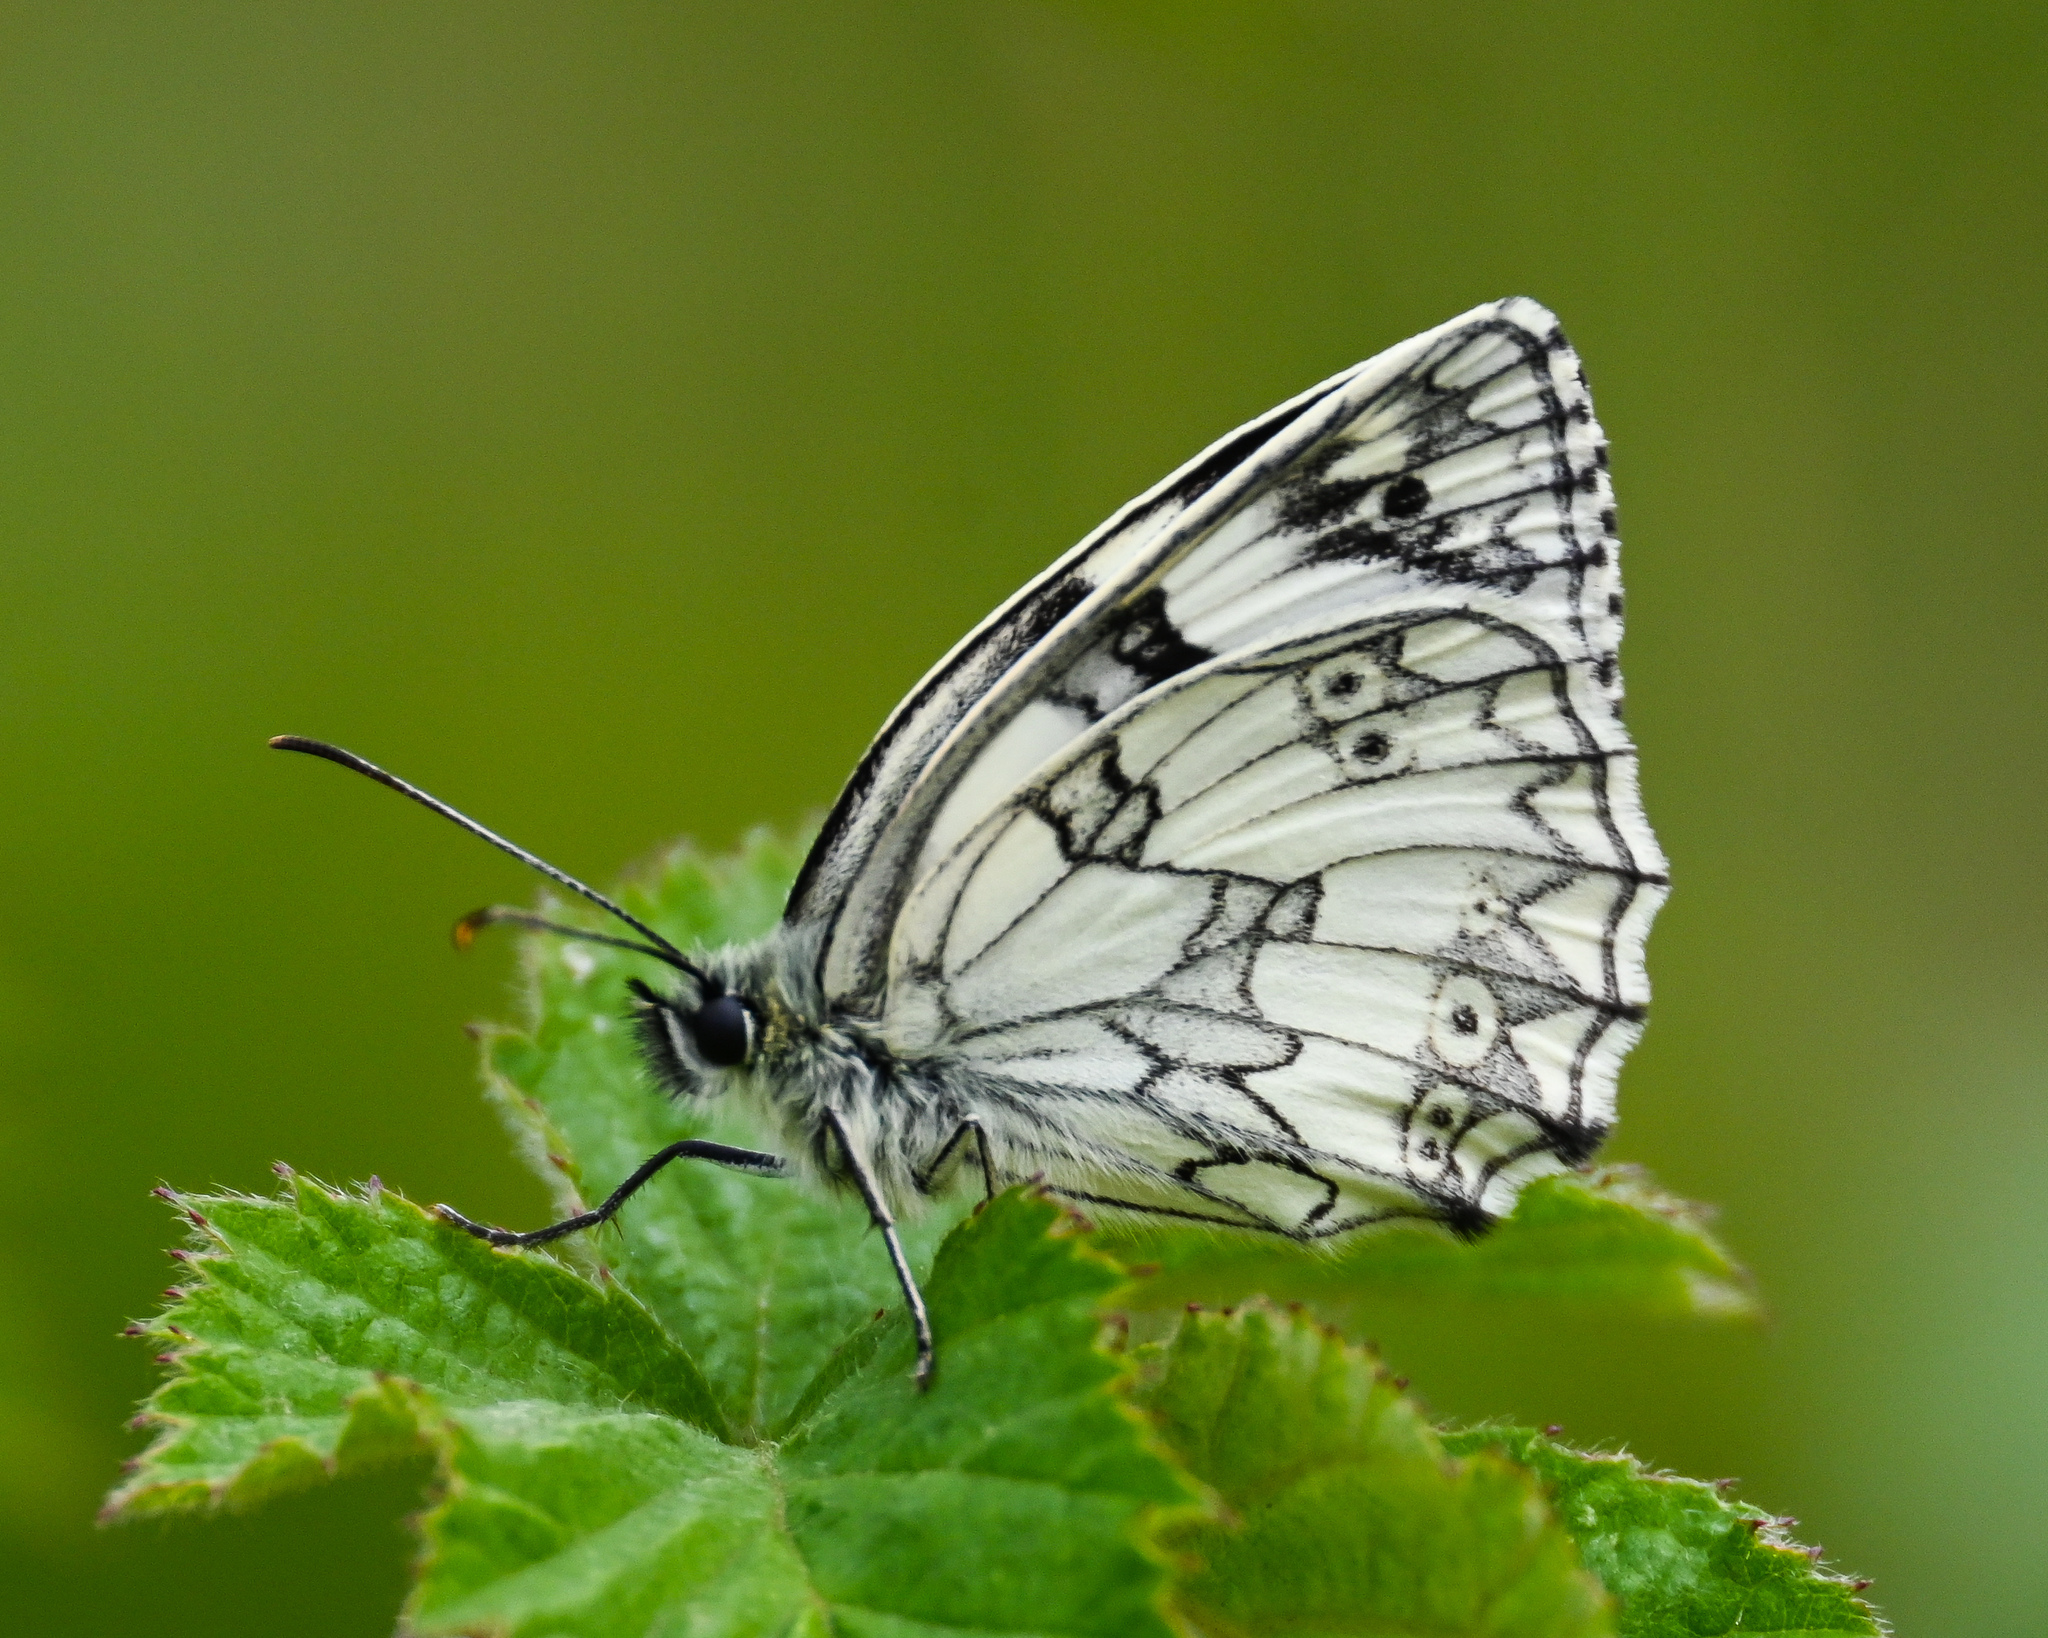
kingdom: Animalia
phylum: Arthropoda
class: Insecta
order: Lepidoptera
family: Nymphalidae
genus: Melanargia
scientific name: Melanargia galathea
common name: Marbled white
